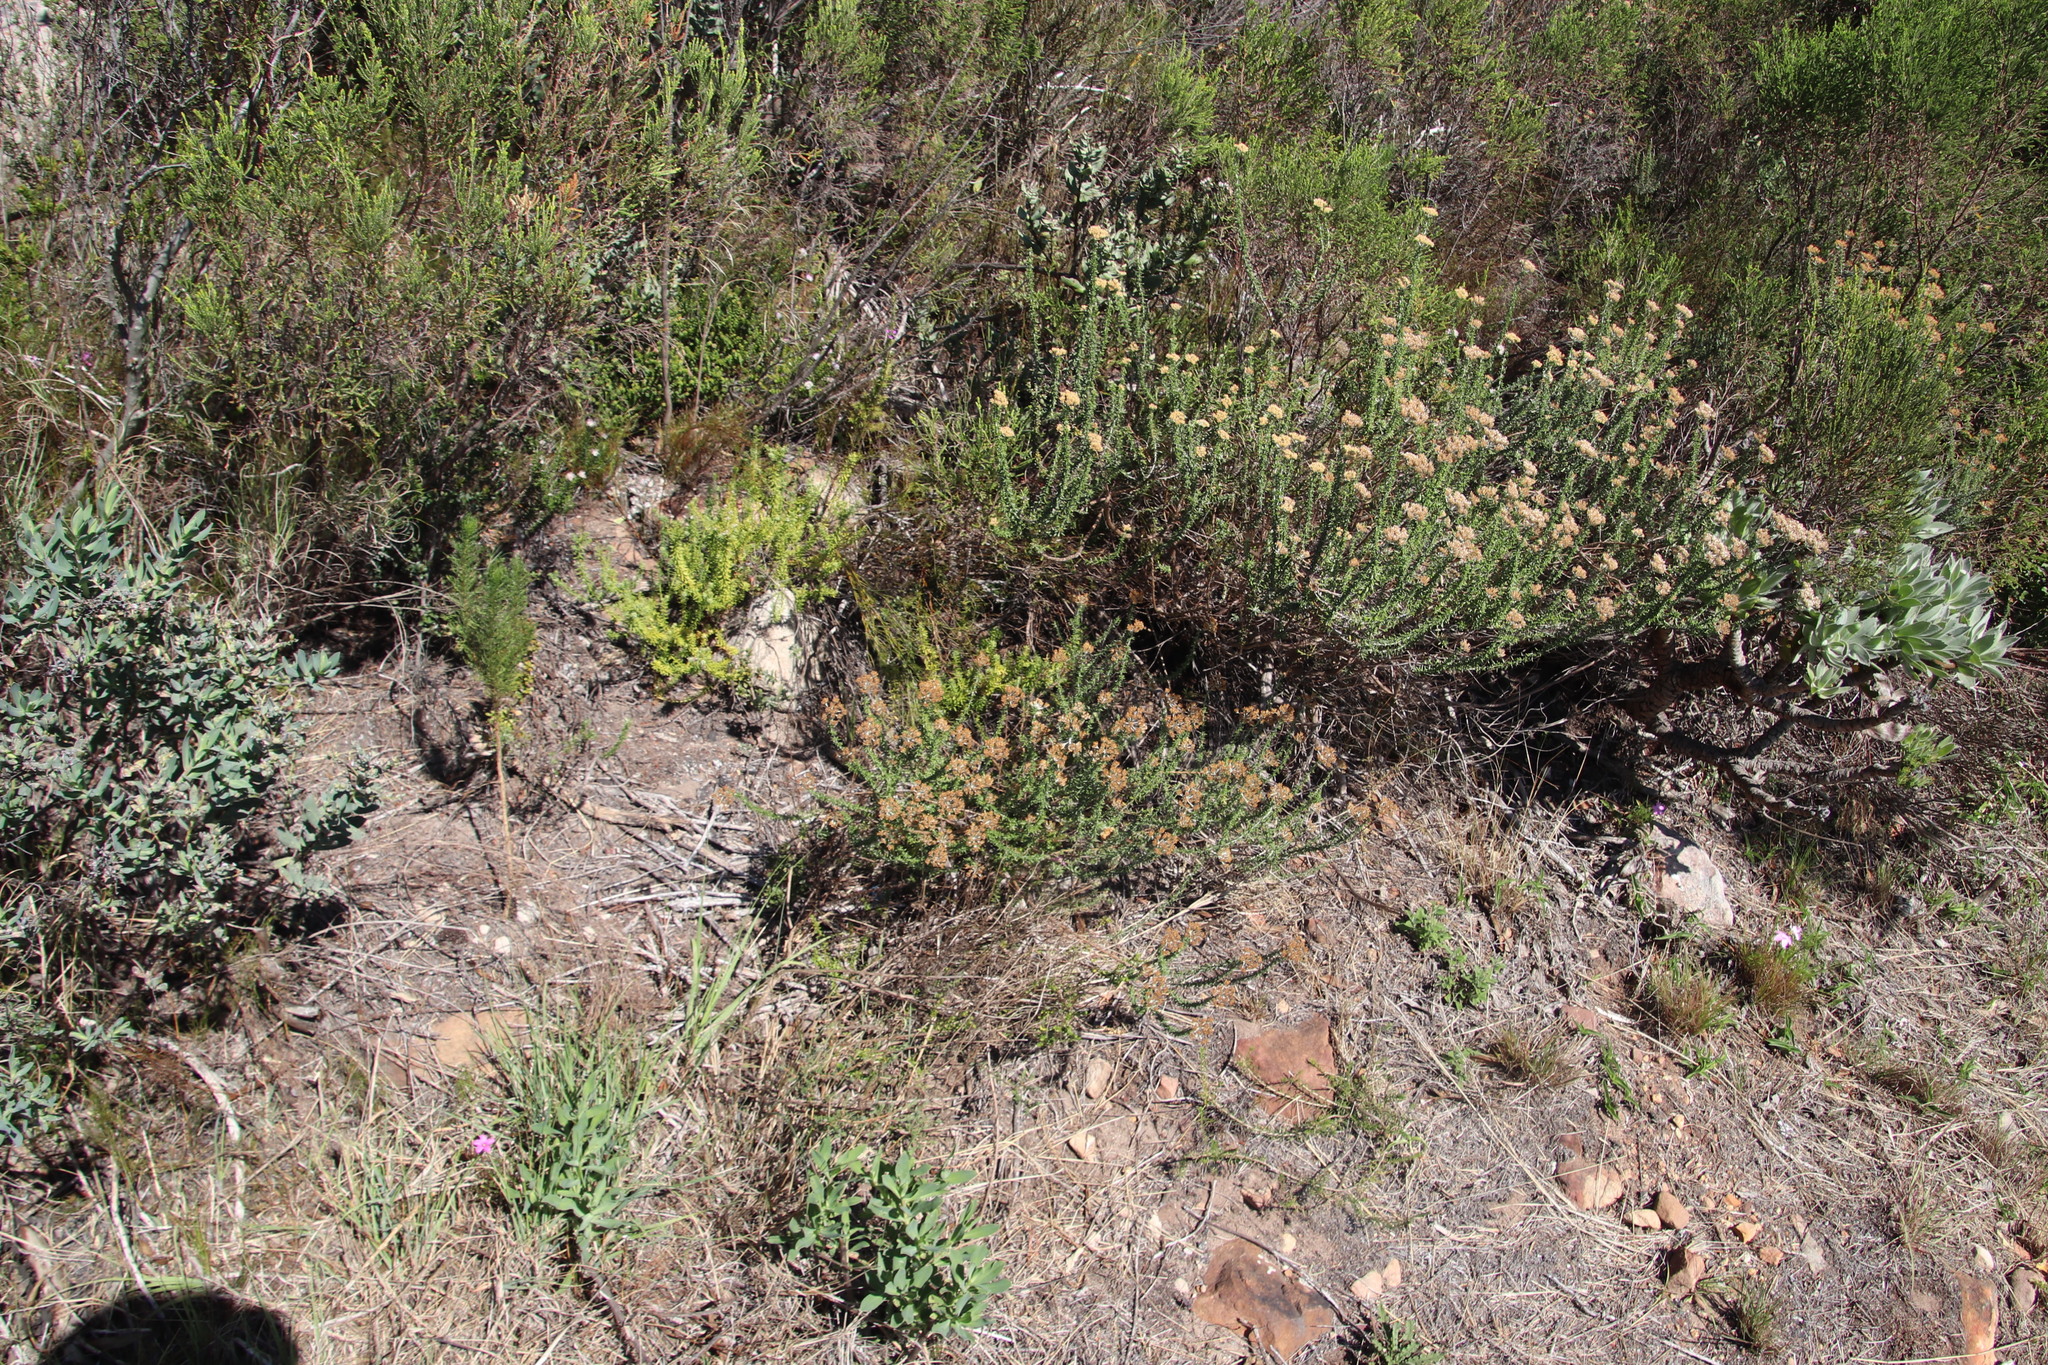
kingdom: Plantae
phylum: Tracheophyta
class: Magnoliopsida
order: Asterales
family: Asteraceae
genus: Metalasia
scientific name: Metalasia densa
